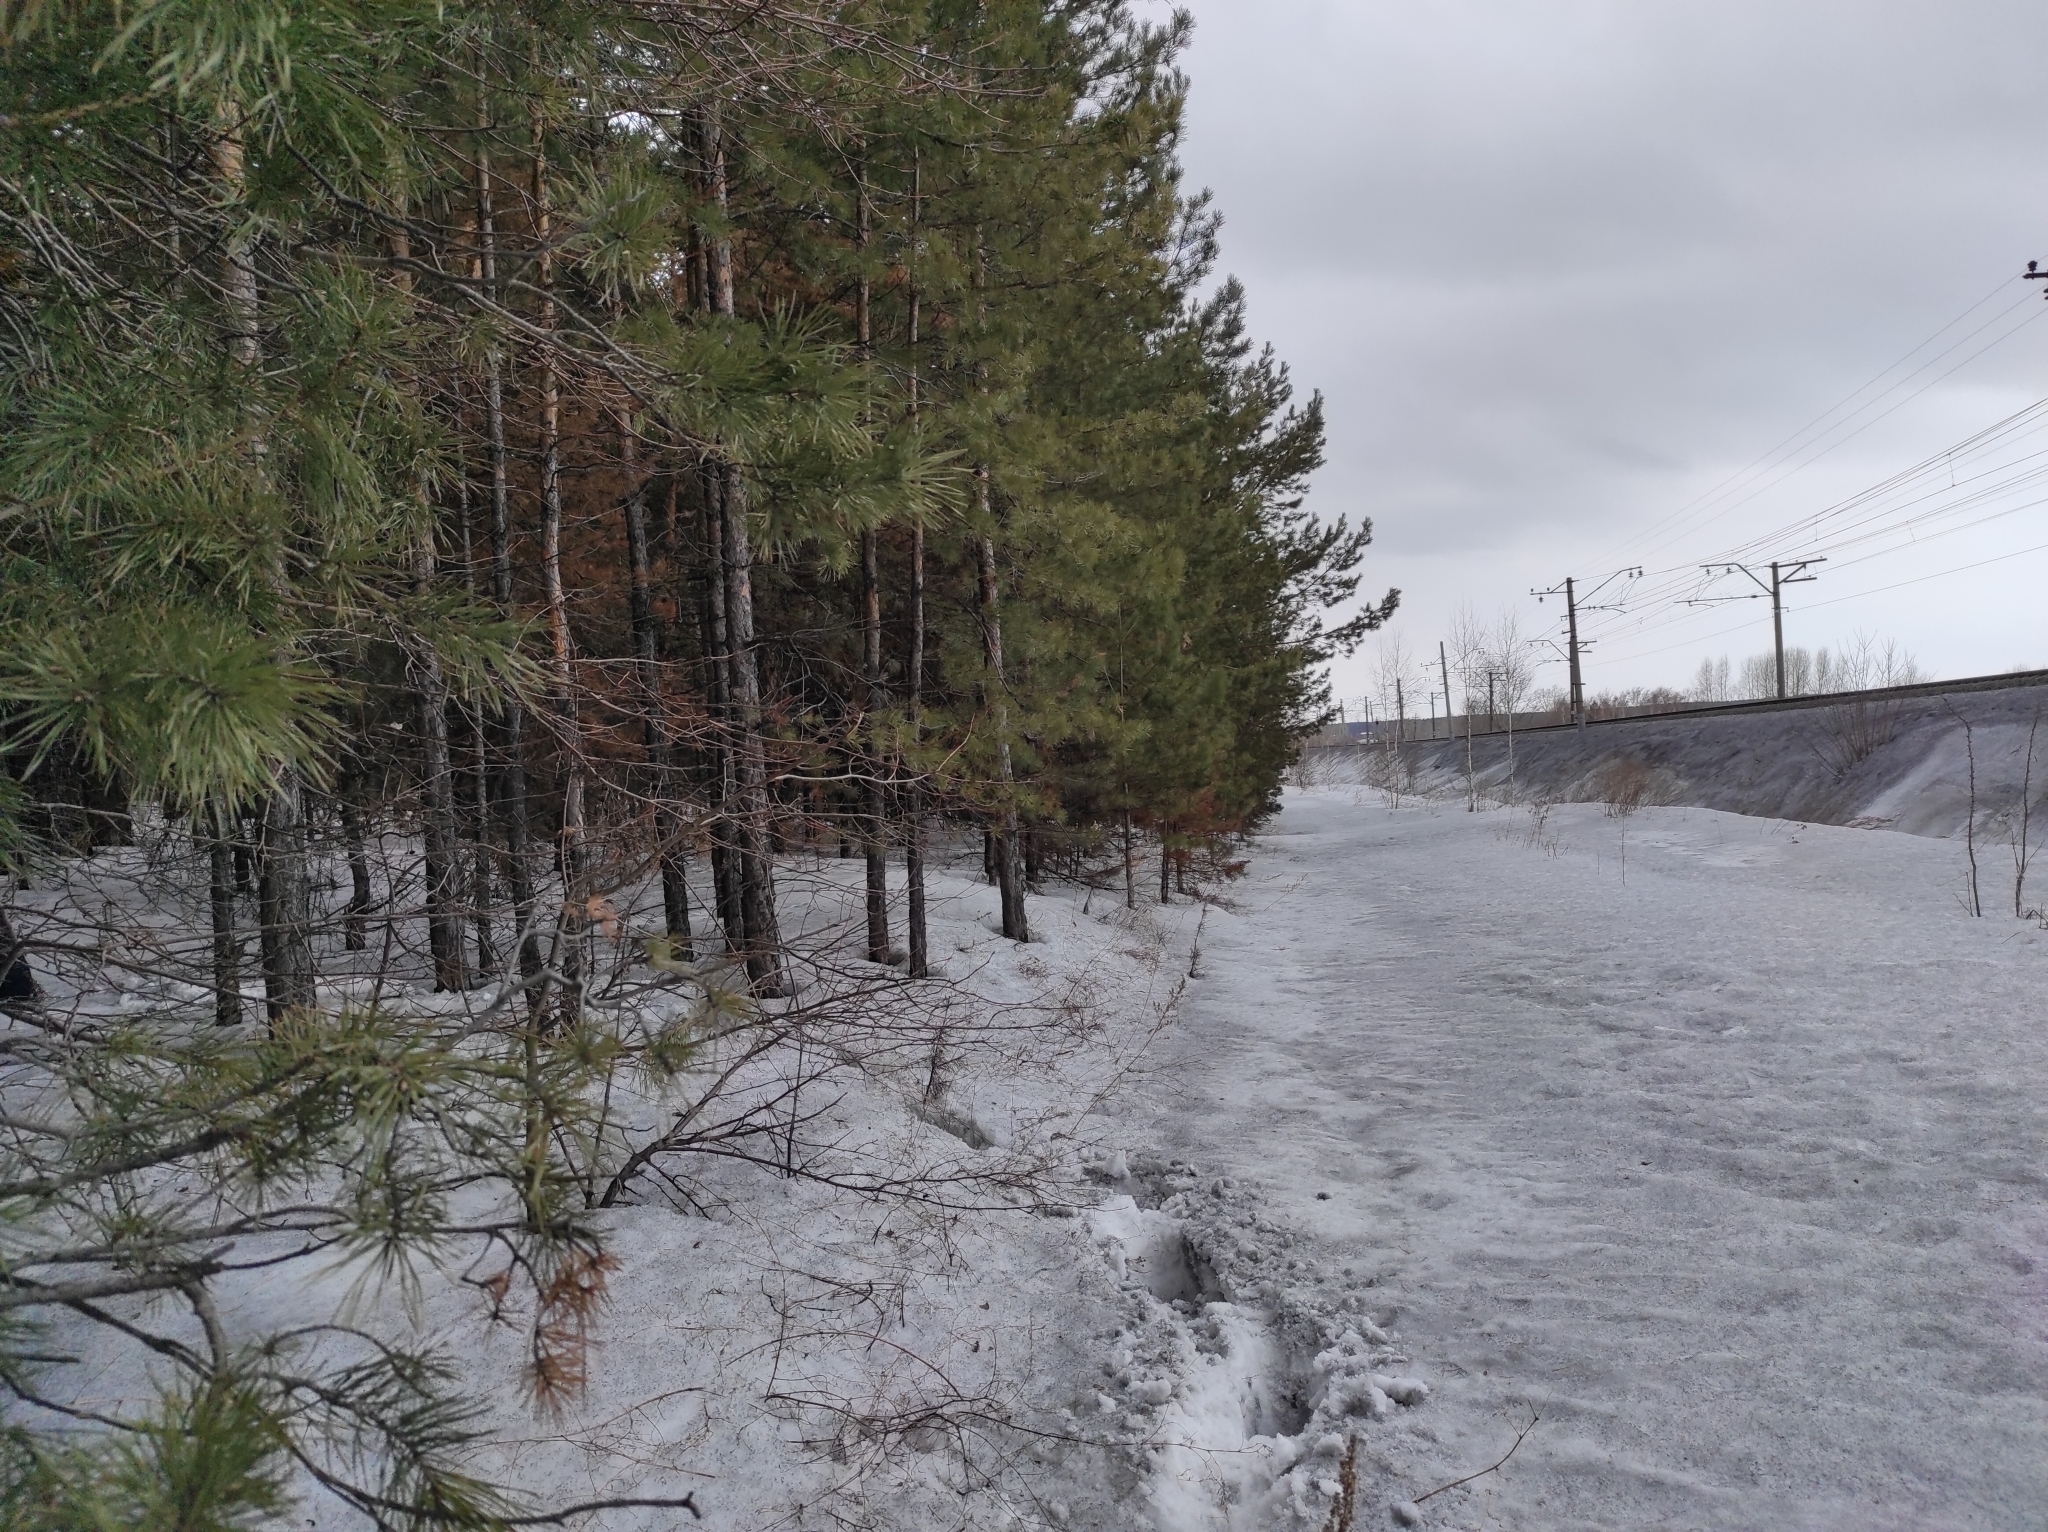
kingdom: Plantae
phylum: Tracheophyta
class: Pinopsida
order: Pinales
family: Pinaceae
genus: Pinus
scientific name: Pinus sylvestris
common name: Scots pine
